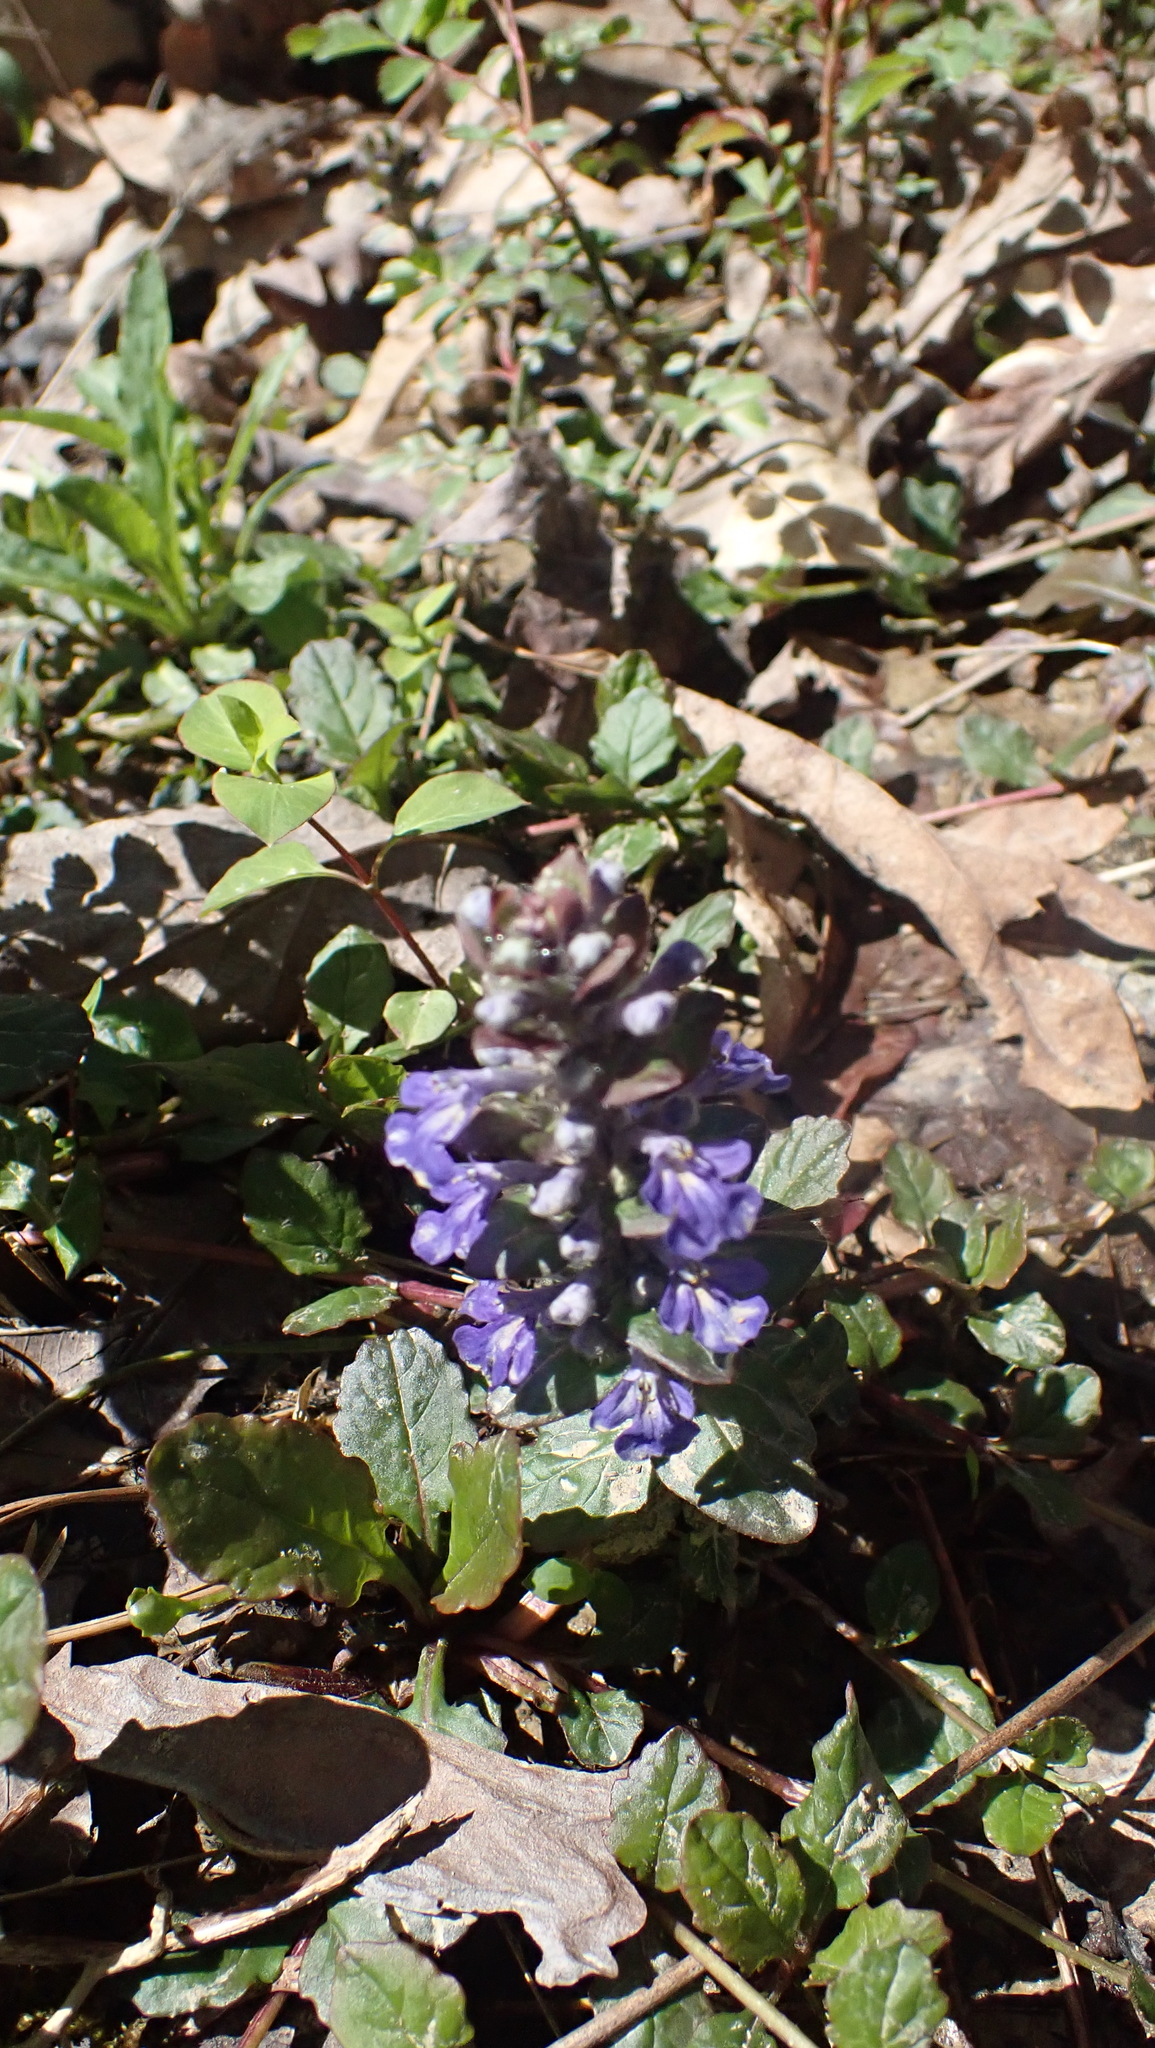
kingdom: Plantae
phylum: Tracheophyta
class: Magnoliopsida
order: Lamiales
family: Lamiaceae
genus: Ajuga
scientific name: Ajuga reptans
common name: Bugle
